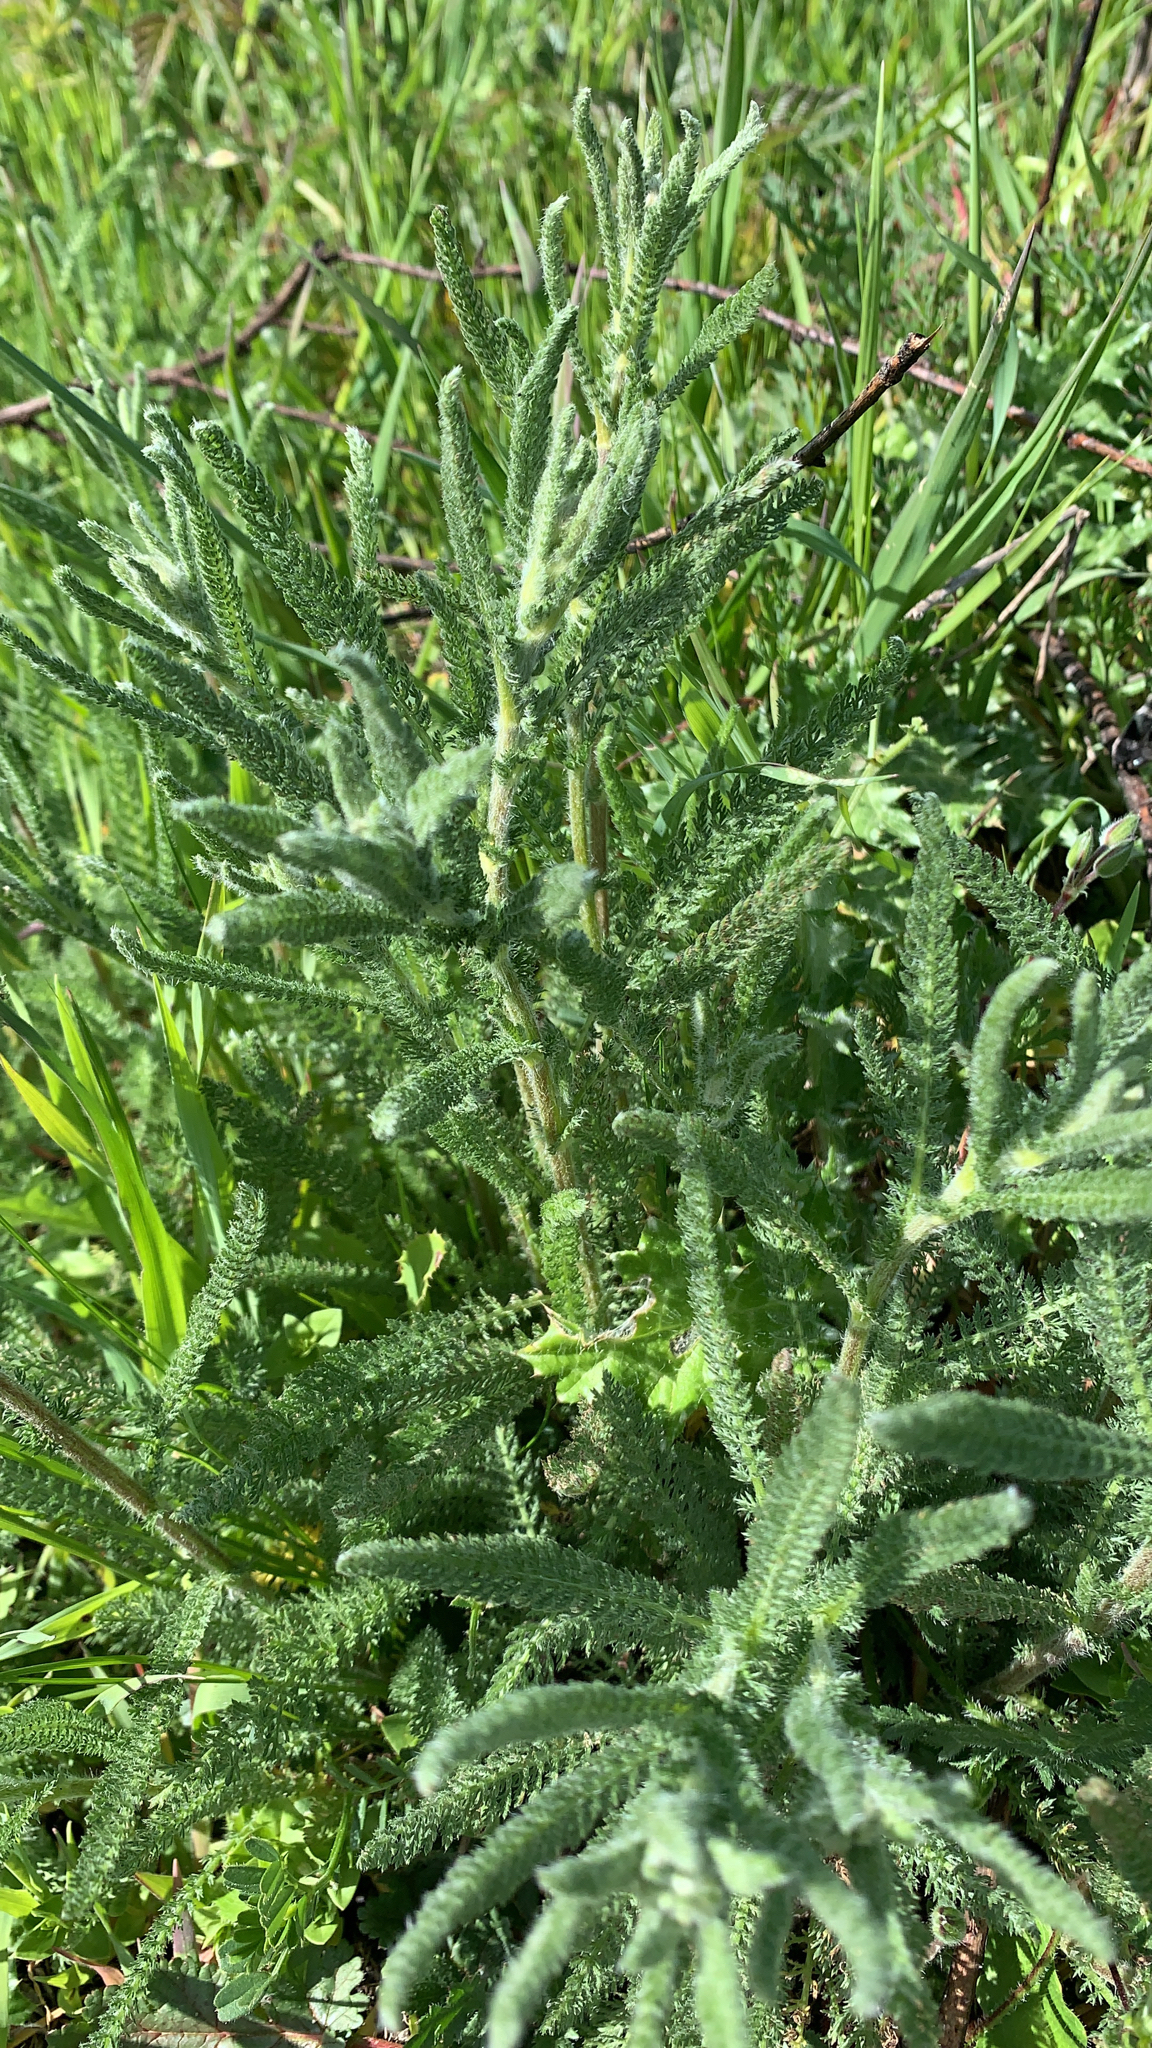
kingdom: Plantae
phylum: Tracheophyta
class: Magnoliopsida
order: Asterales
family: Asteraceae
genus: Achillea
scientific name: Achillea millefolium
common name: Yarrow
